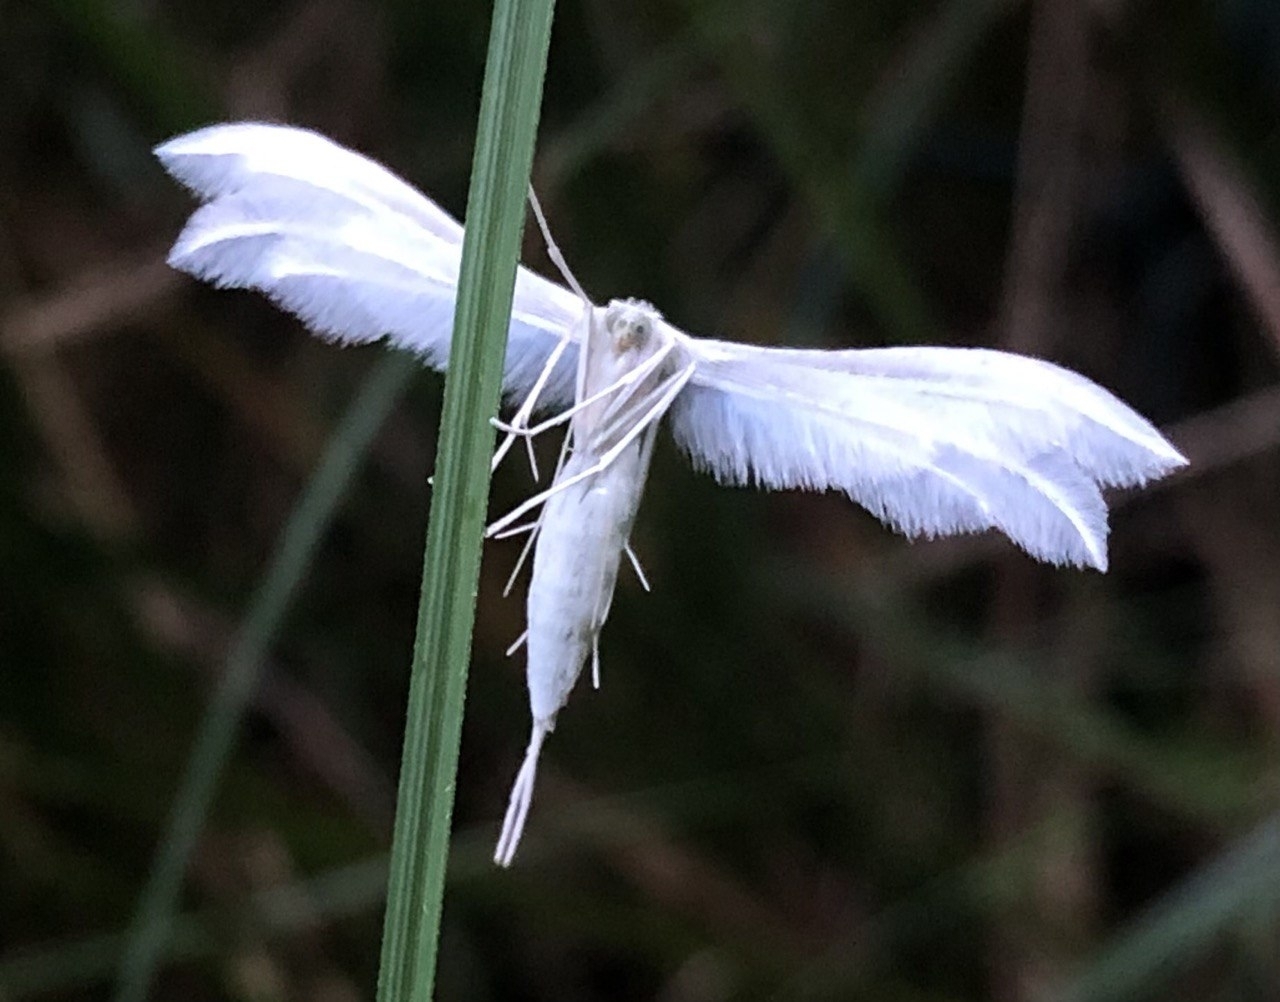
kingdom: Animalia
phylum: Arthropoda
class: Insecta
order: Lepidoptera
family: Pterophoridae
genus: Pterophorus
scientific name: Pterophorus pentadactyla
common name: White plume moth
